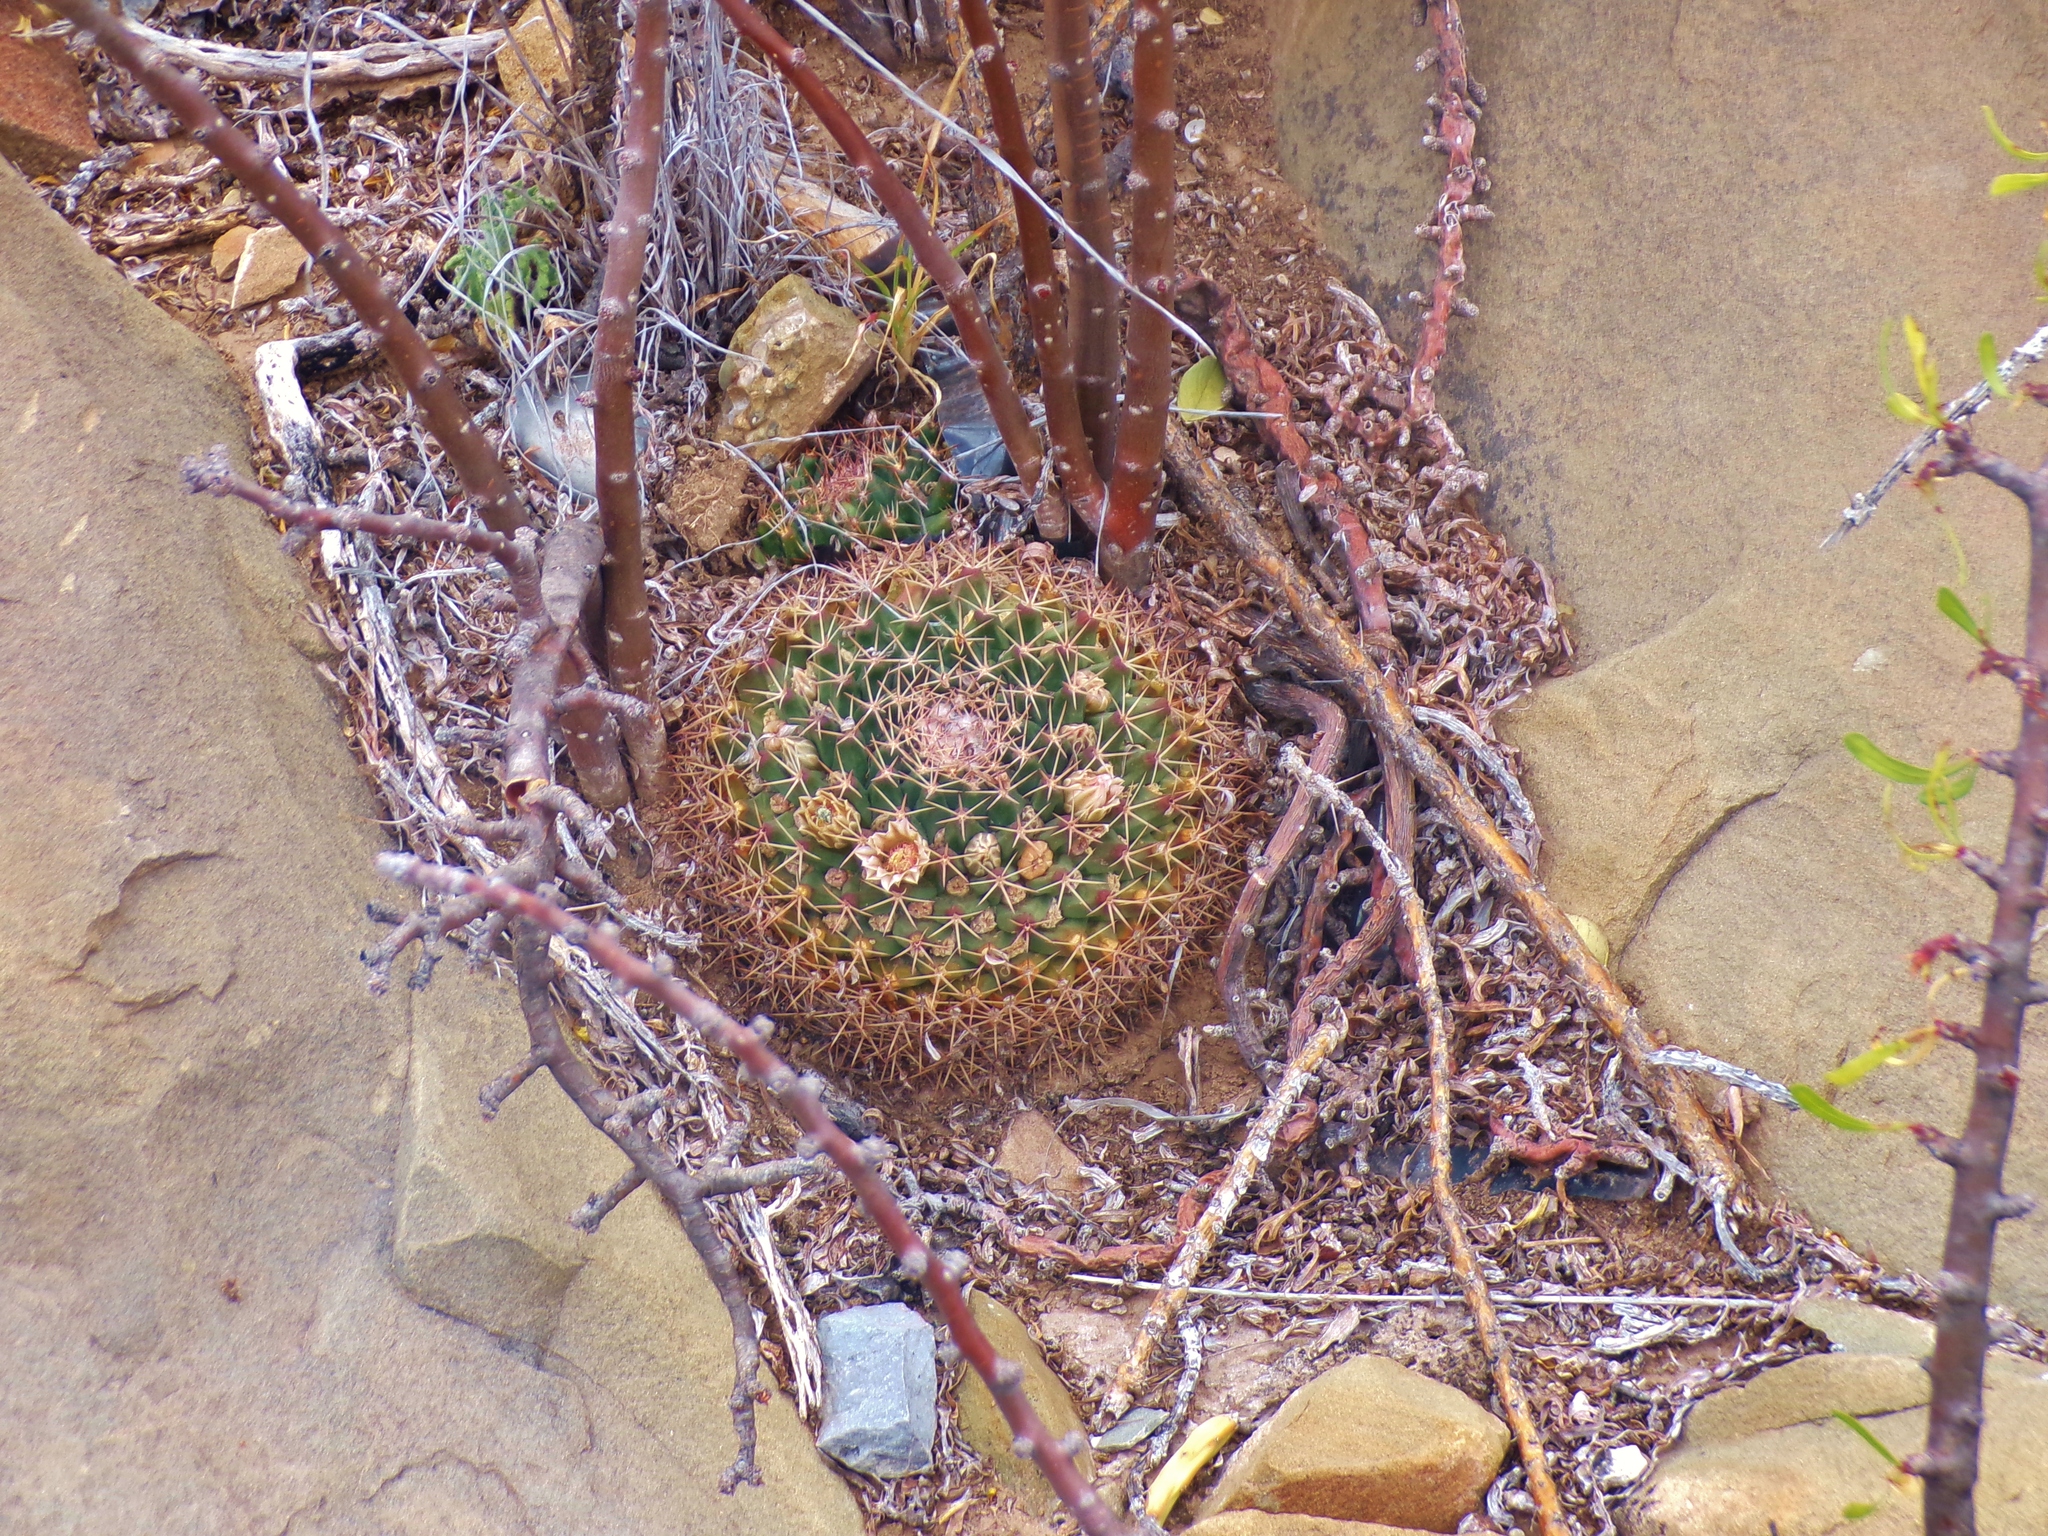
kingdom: Plantae
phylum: Tracheophyta
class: Magnoliopsida
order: Caryophyllales
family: Cactaceae
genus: Mammillaria
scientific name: Mammillaria heyderi
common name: Little nipple cactus
